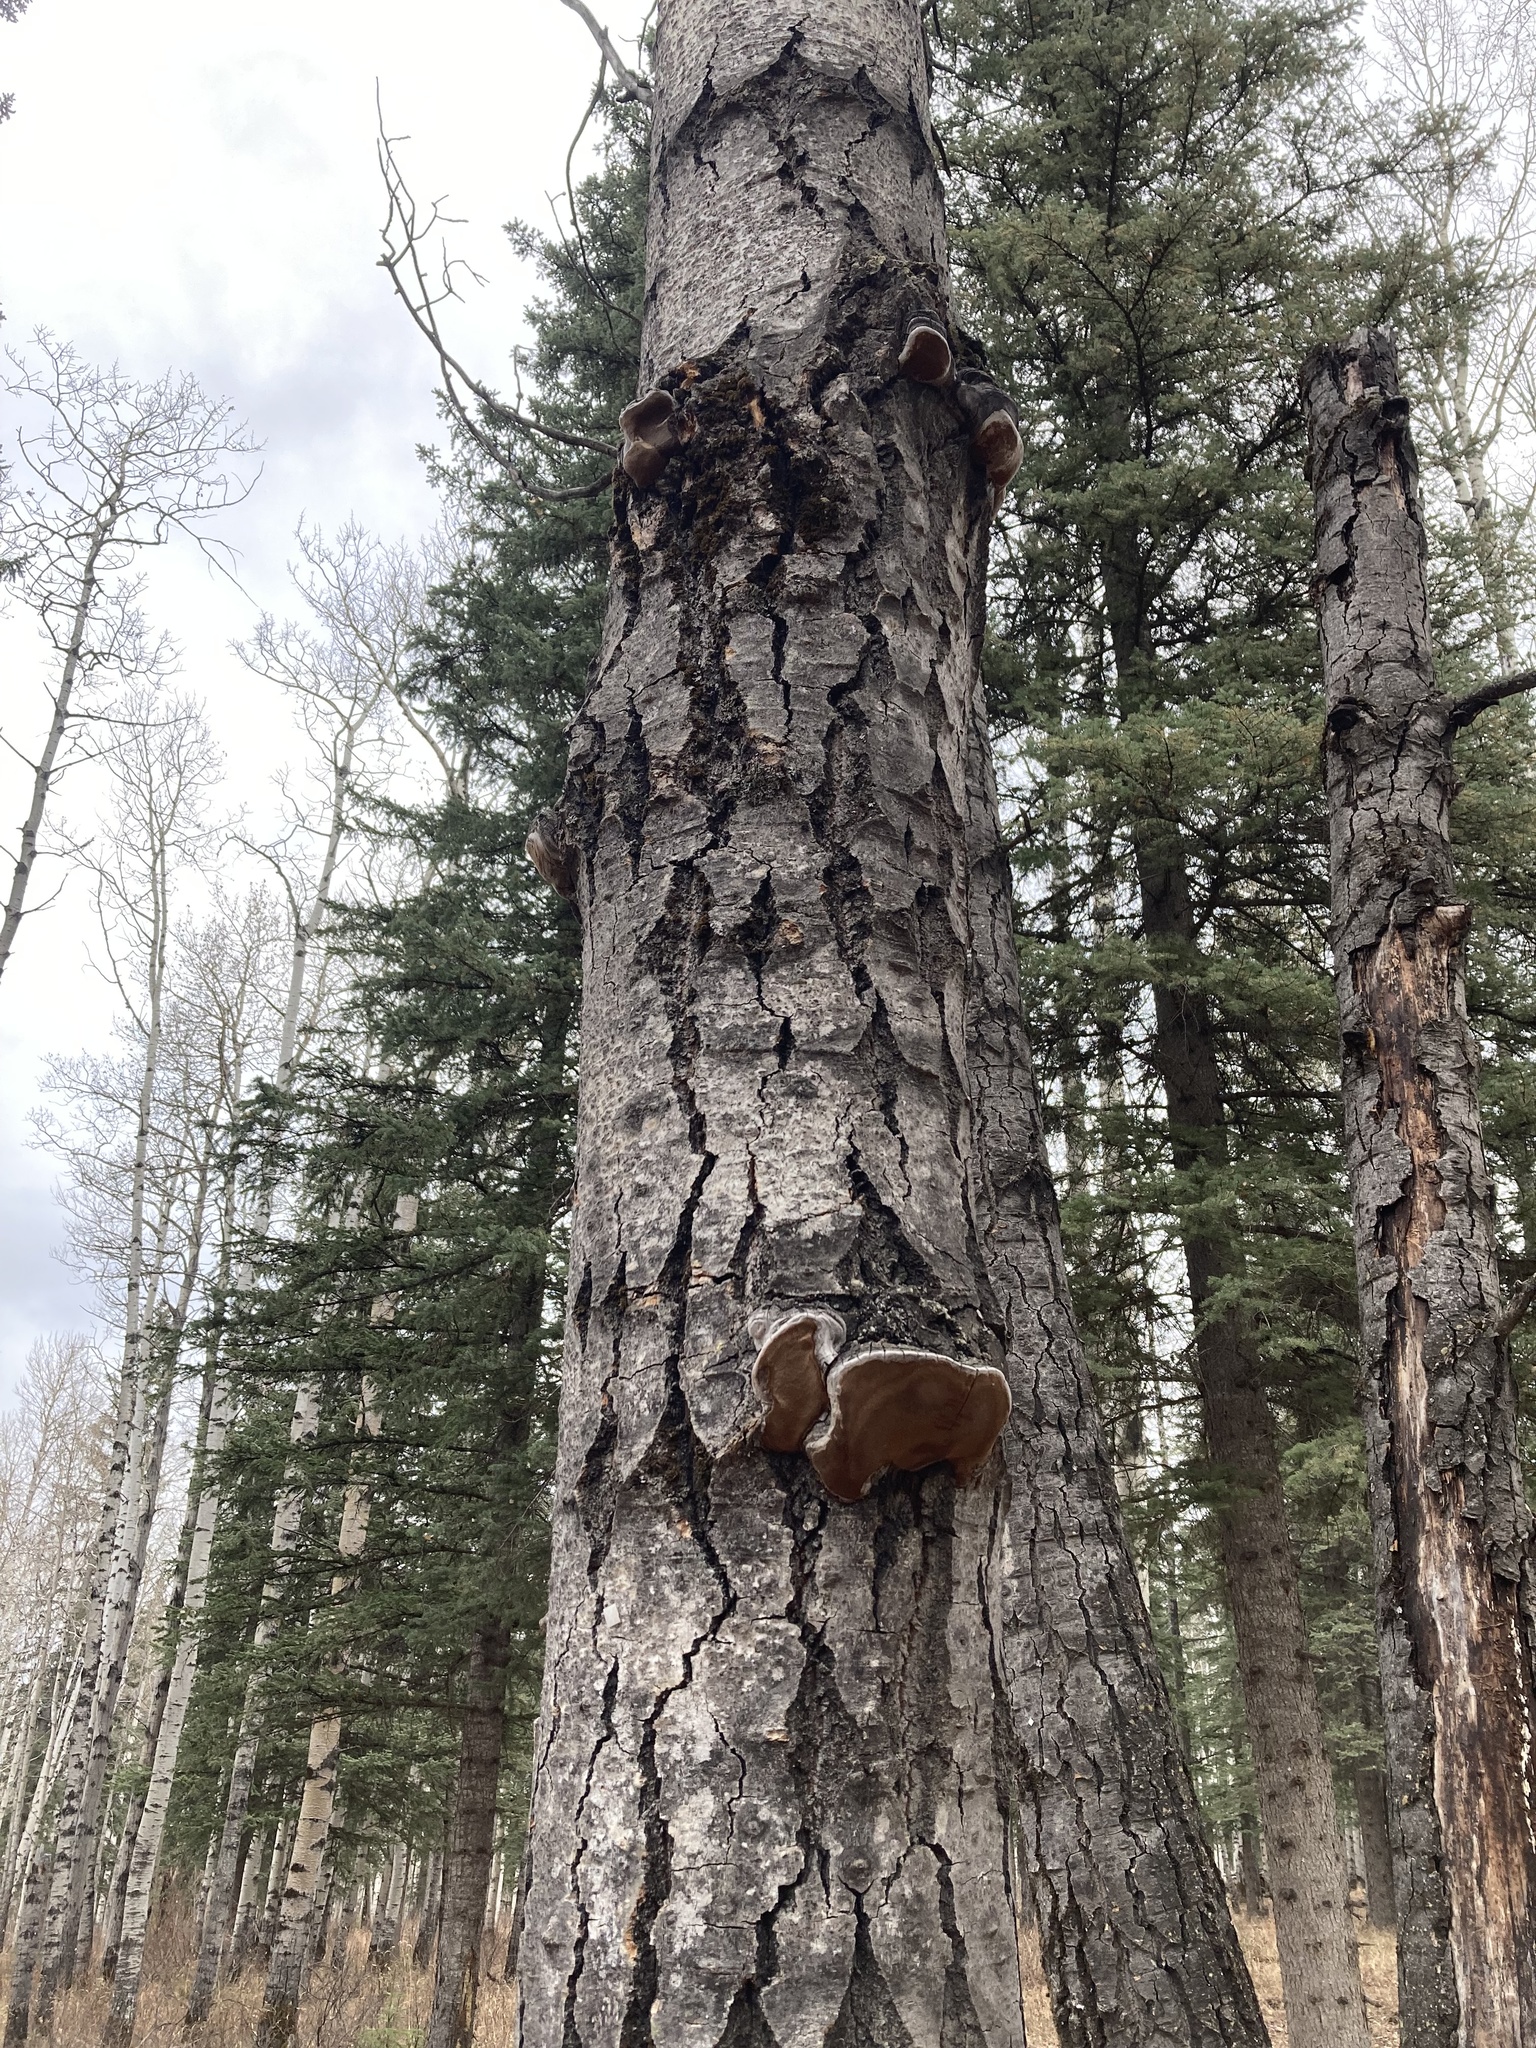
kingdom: Fungi
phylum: Basidiomycota
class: Agaricomycetes
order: Hymenochaetales
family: Hymenochaetaceae
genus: Phellinus
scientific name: Phellinus tremulae
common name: Aspen bracket
